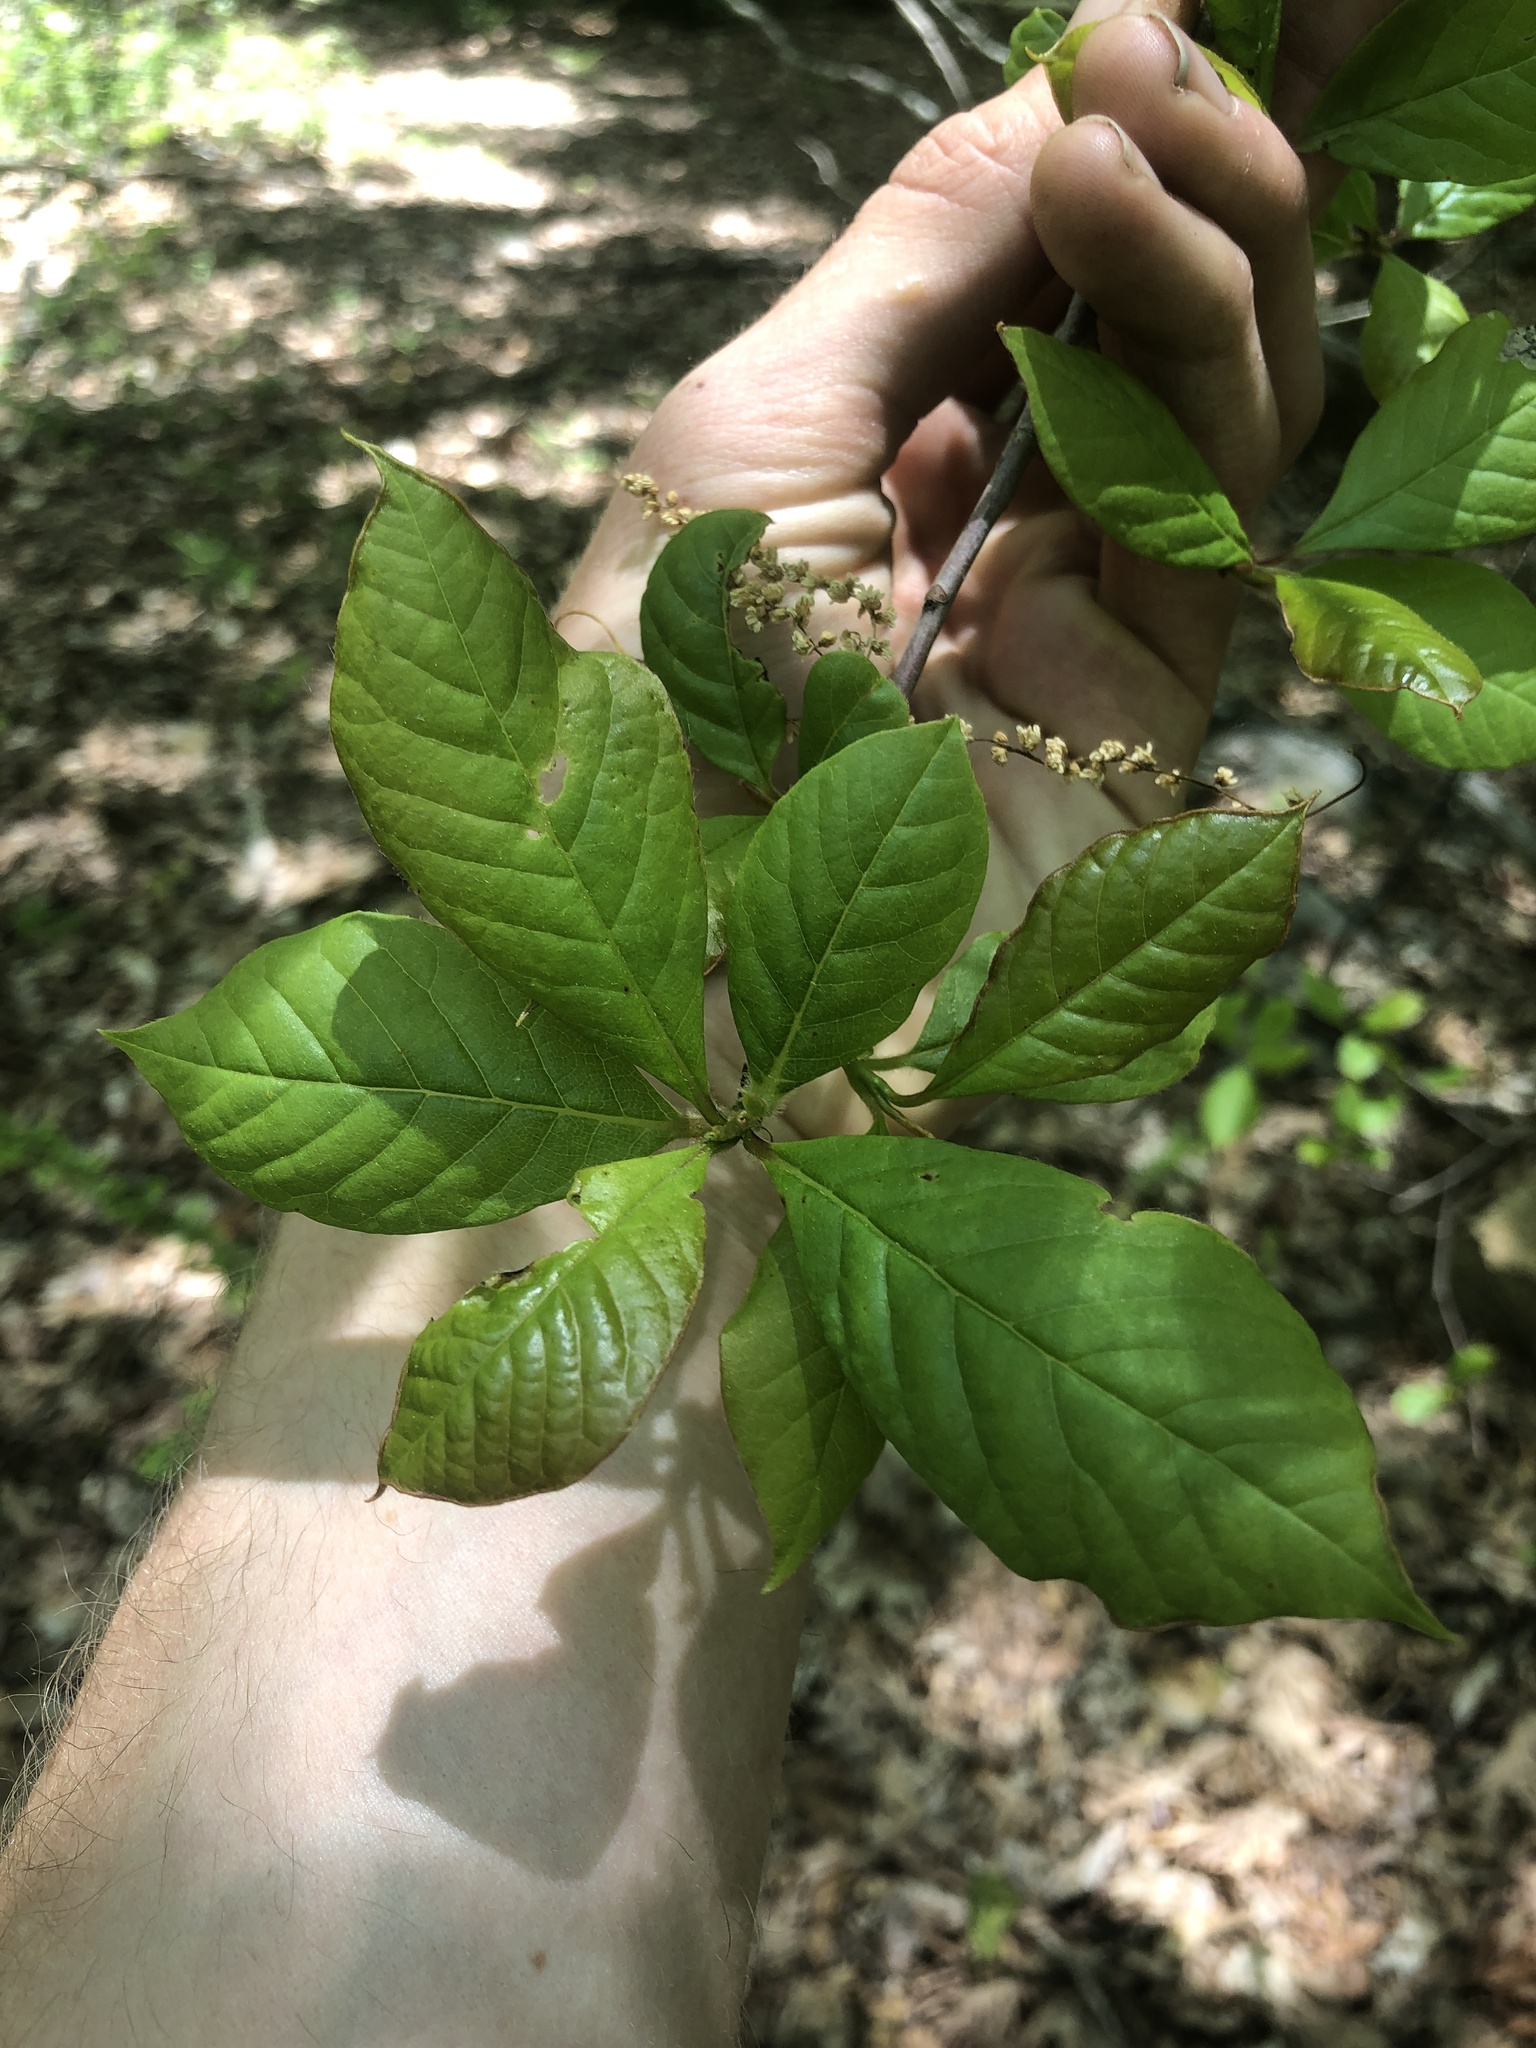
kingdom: Plantae
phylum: Tracheophyta
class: Magnoliopsida
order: Cornales
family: Nyssaceae
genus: Nyssa
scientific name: Nyssa sylvatica
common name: Black tupelo
